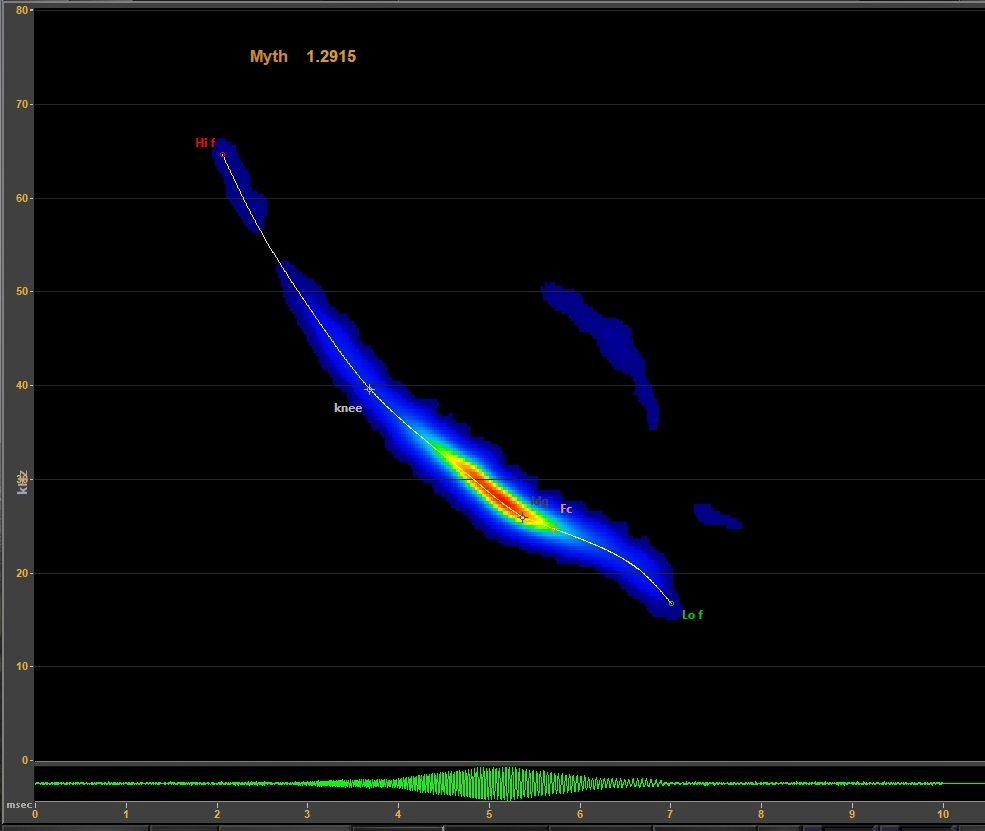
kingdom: Animalia
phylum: Chordata
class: Mammalia
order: Chiroptera
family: Vespertilionidae
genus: Myotis
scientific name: Myotis thysanodes
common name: Fringed myotis
